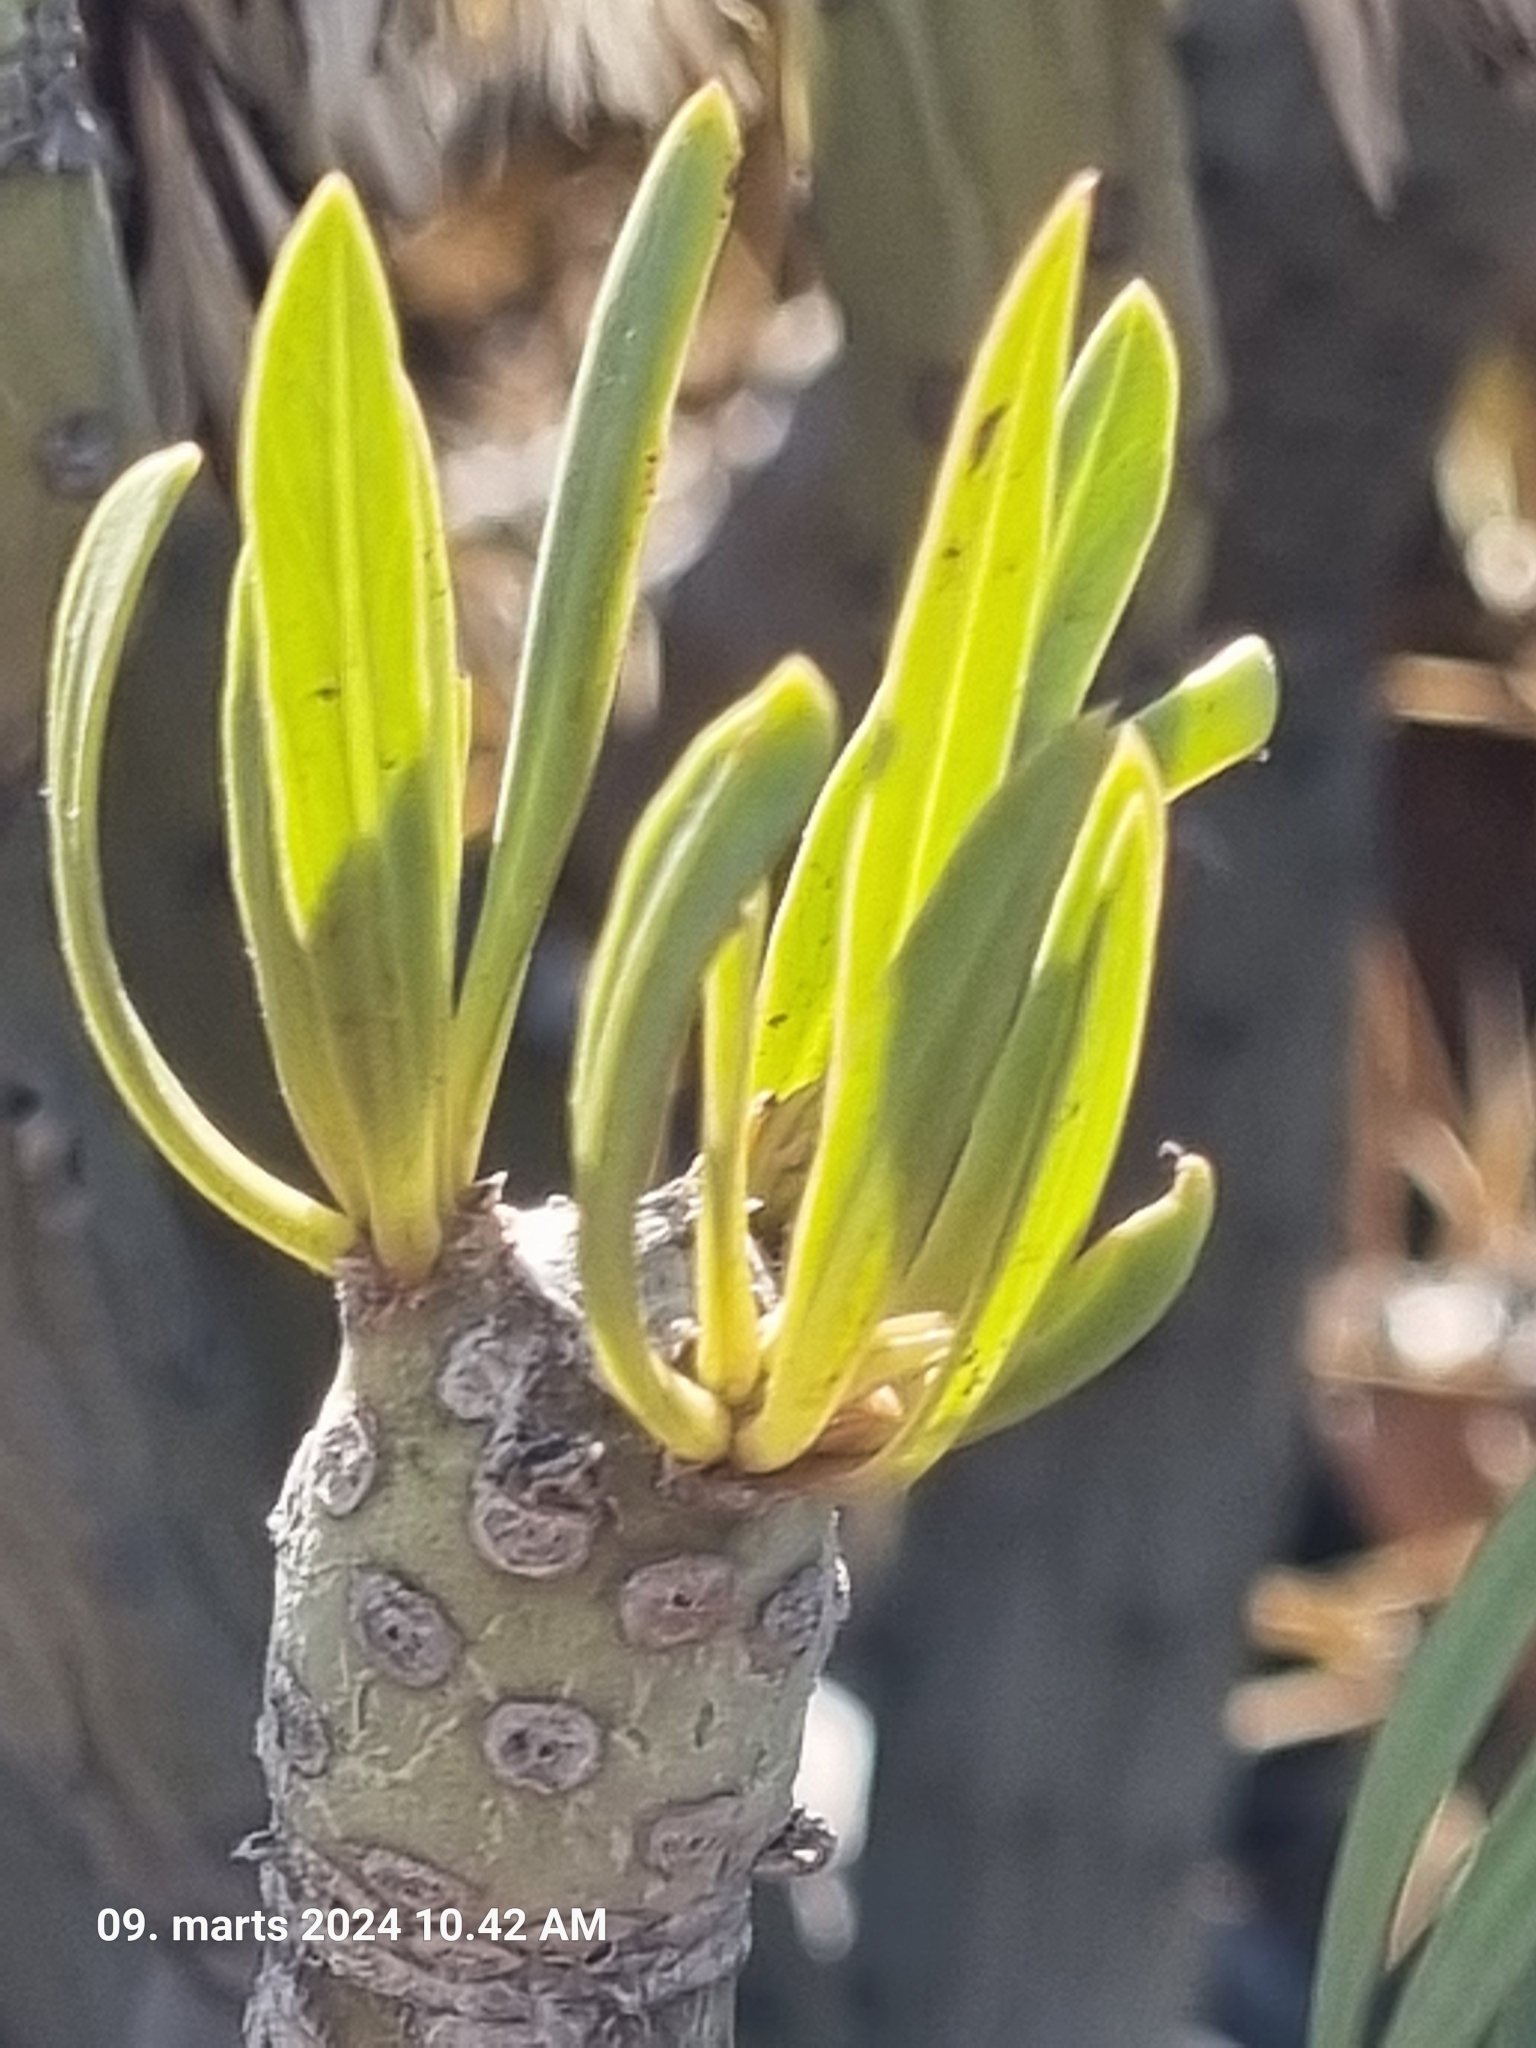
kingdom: Plantae
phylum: Tracheophyta
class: Magnoliopsida
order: Asterales
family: Asteraceae
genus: Kleinia
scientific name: Kleinia neriifolia
